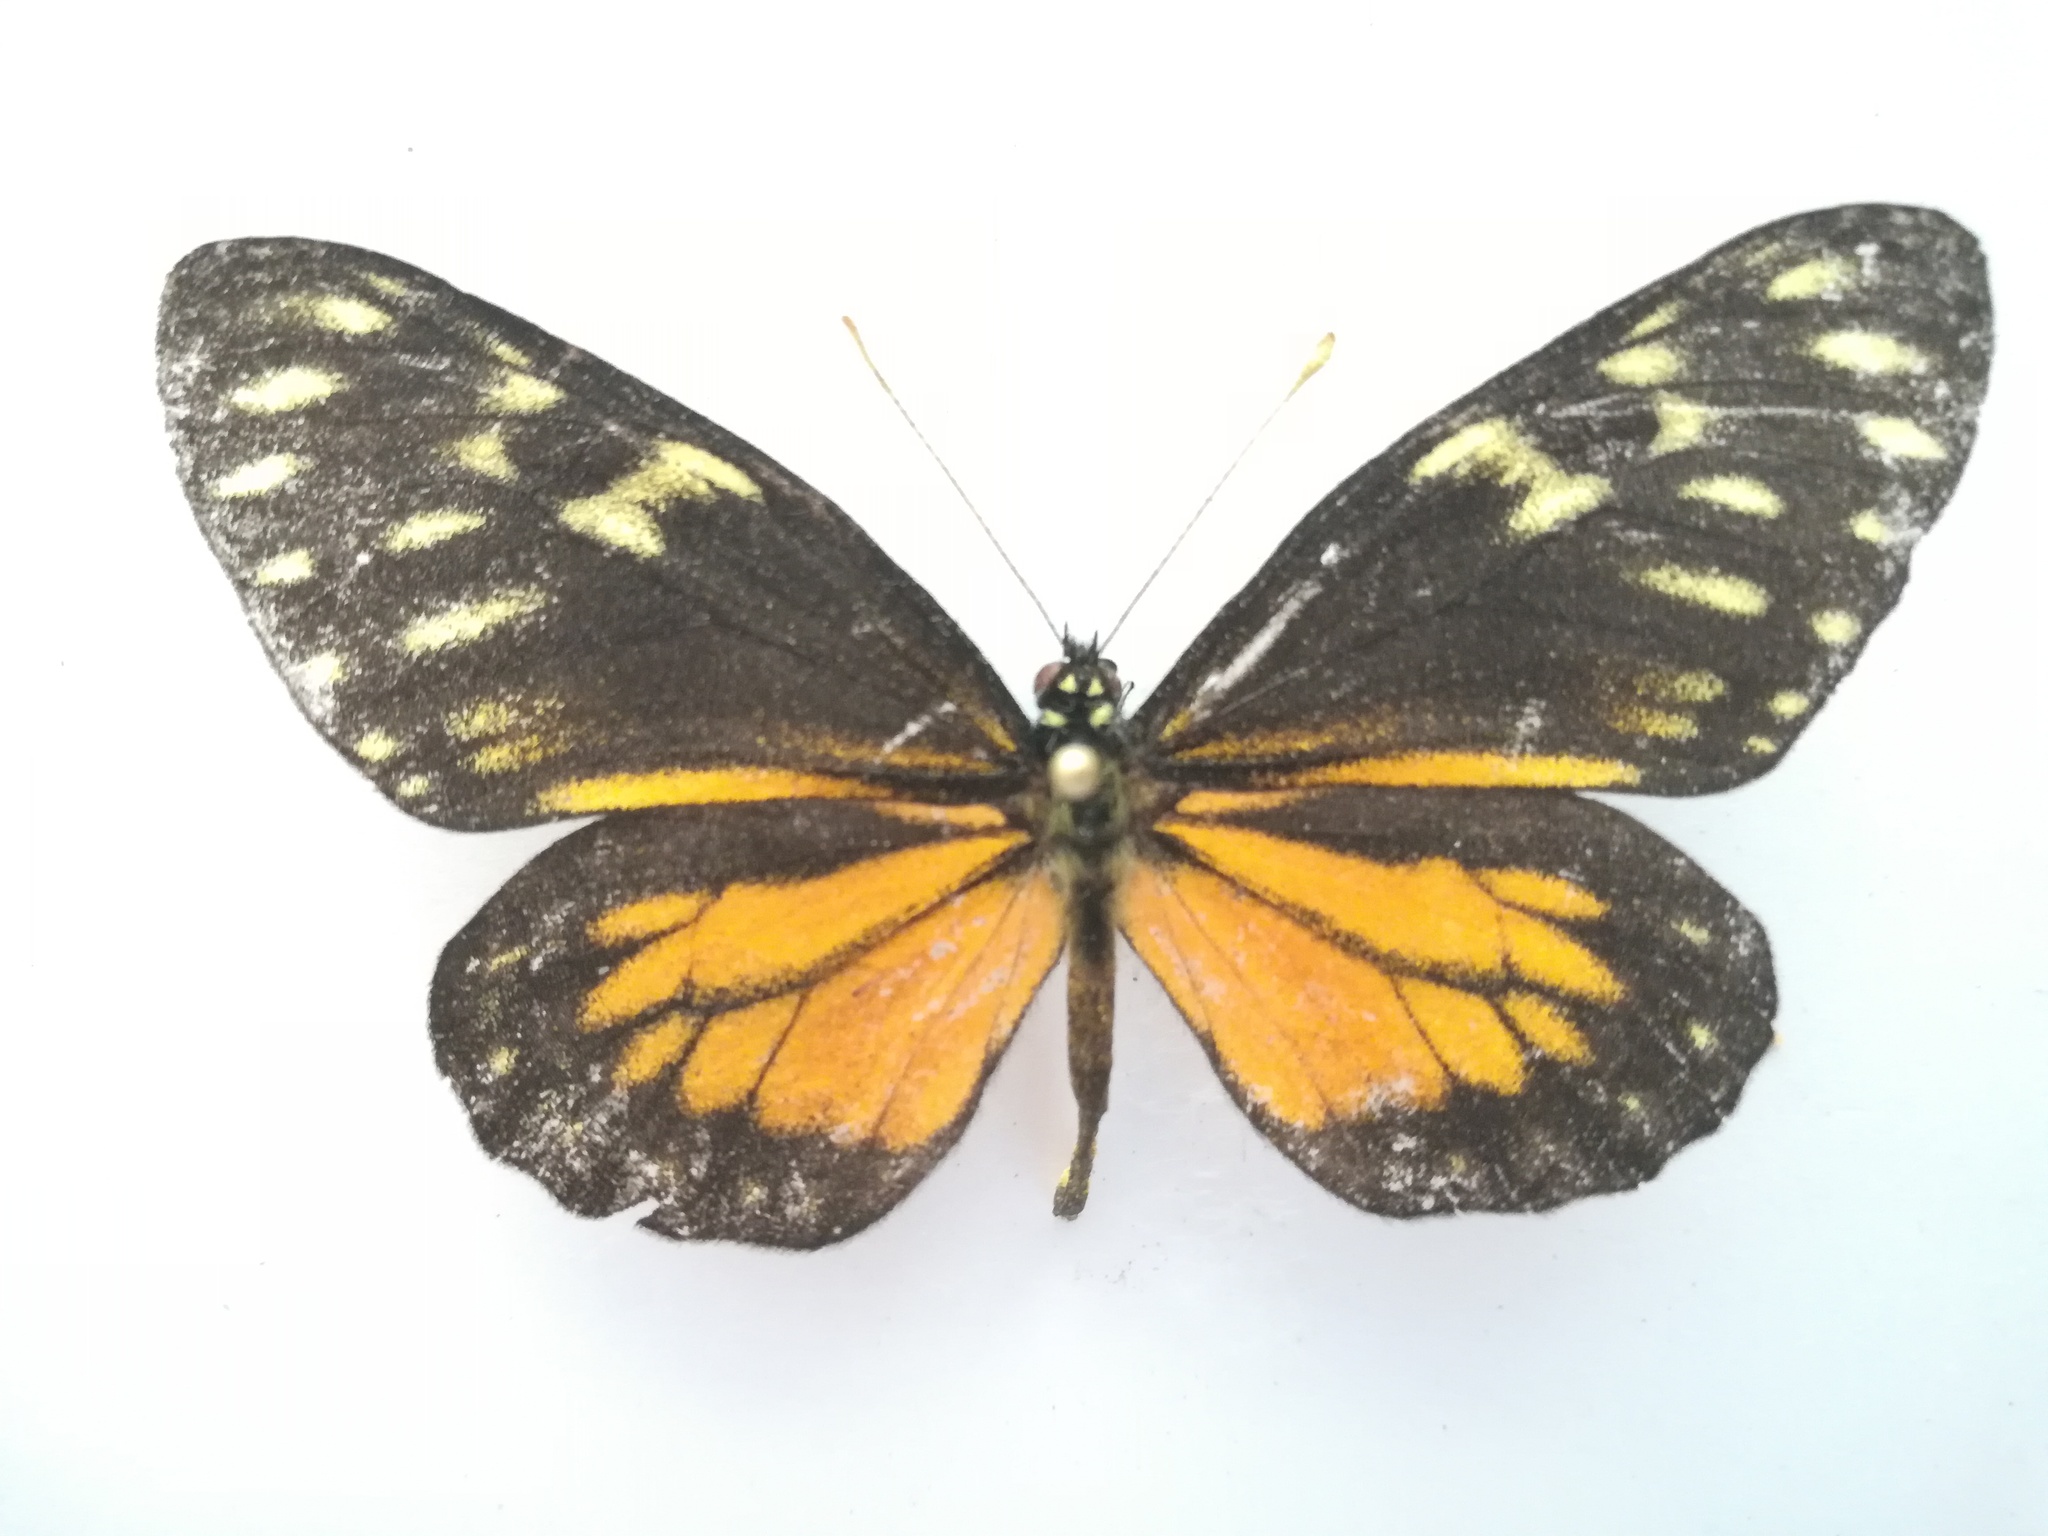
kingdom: Animalia
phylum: Arthropoda
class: Insecta
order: Lepidoptera
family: Pieridae
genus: Charonias
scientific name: Charonias eurytele
